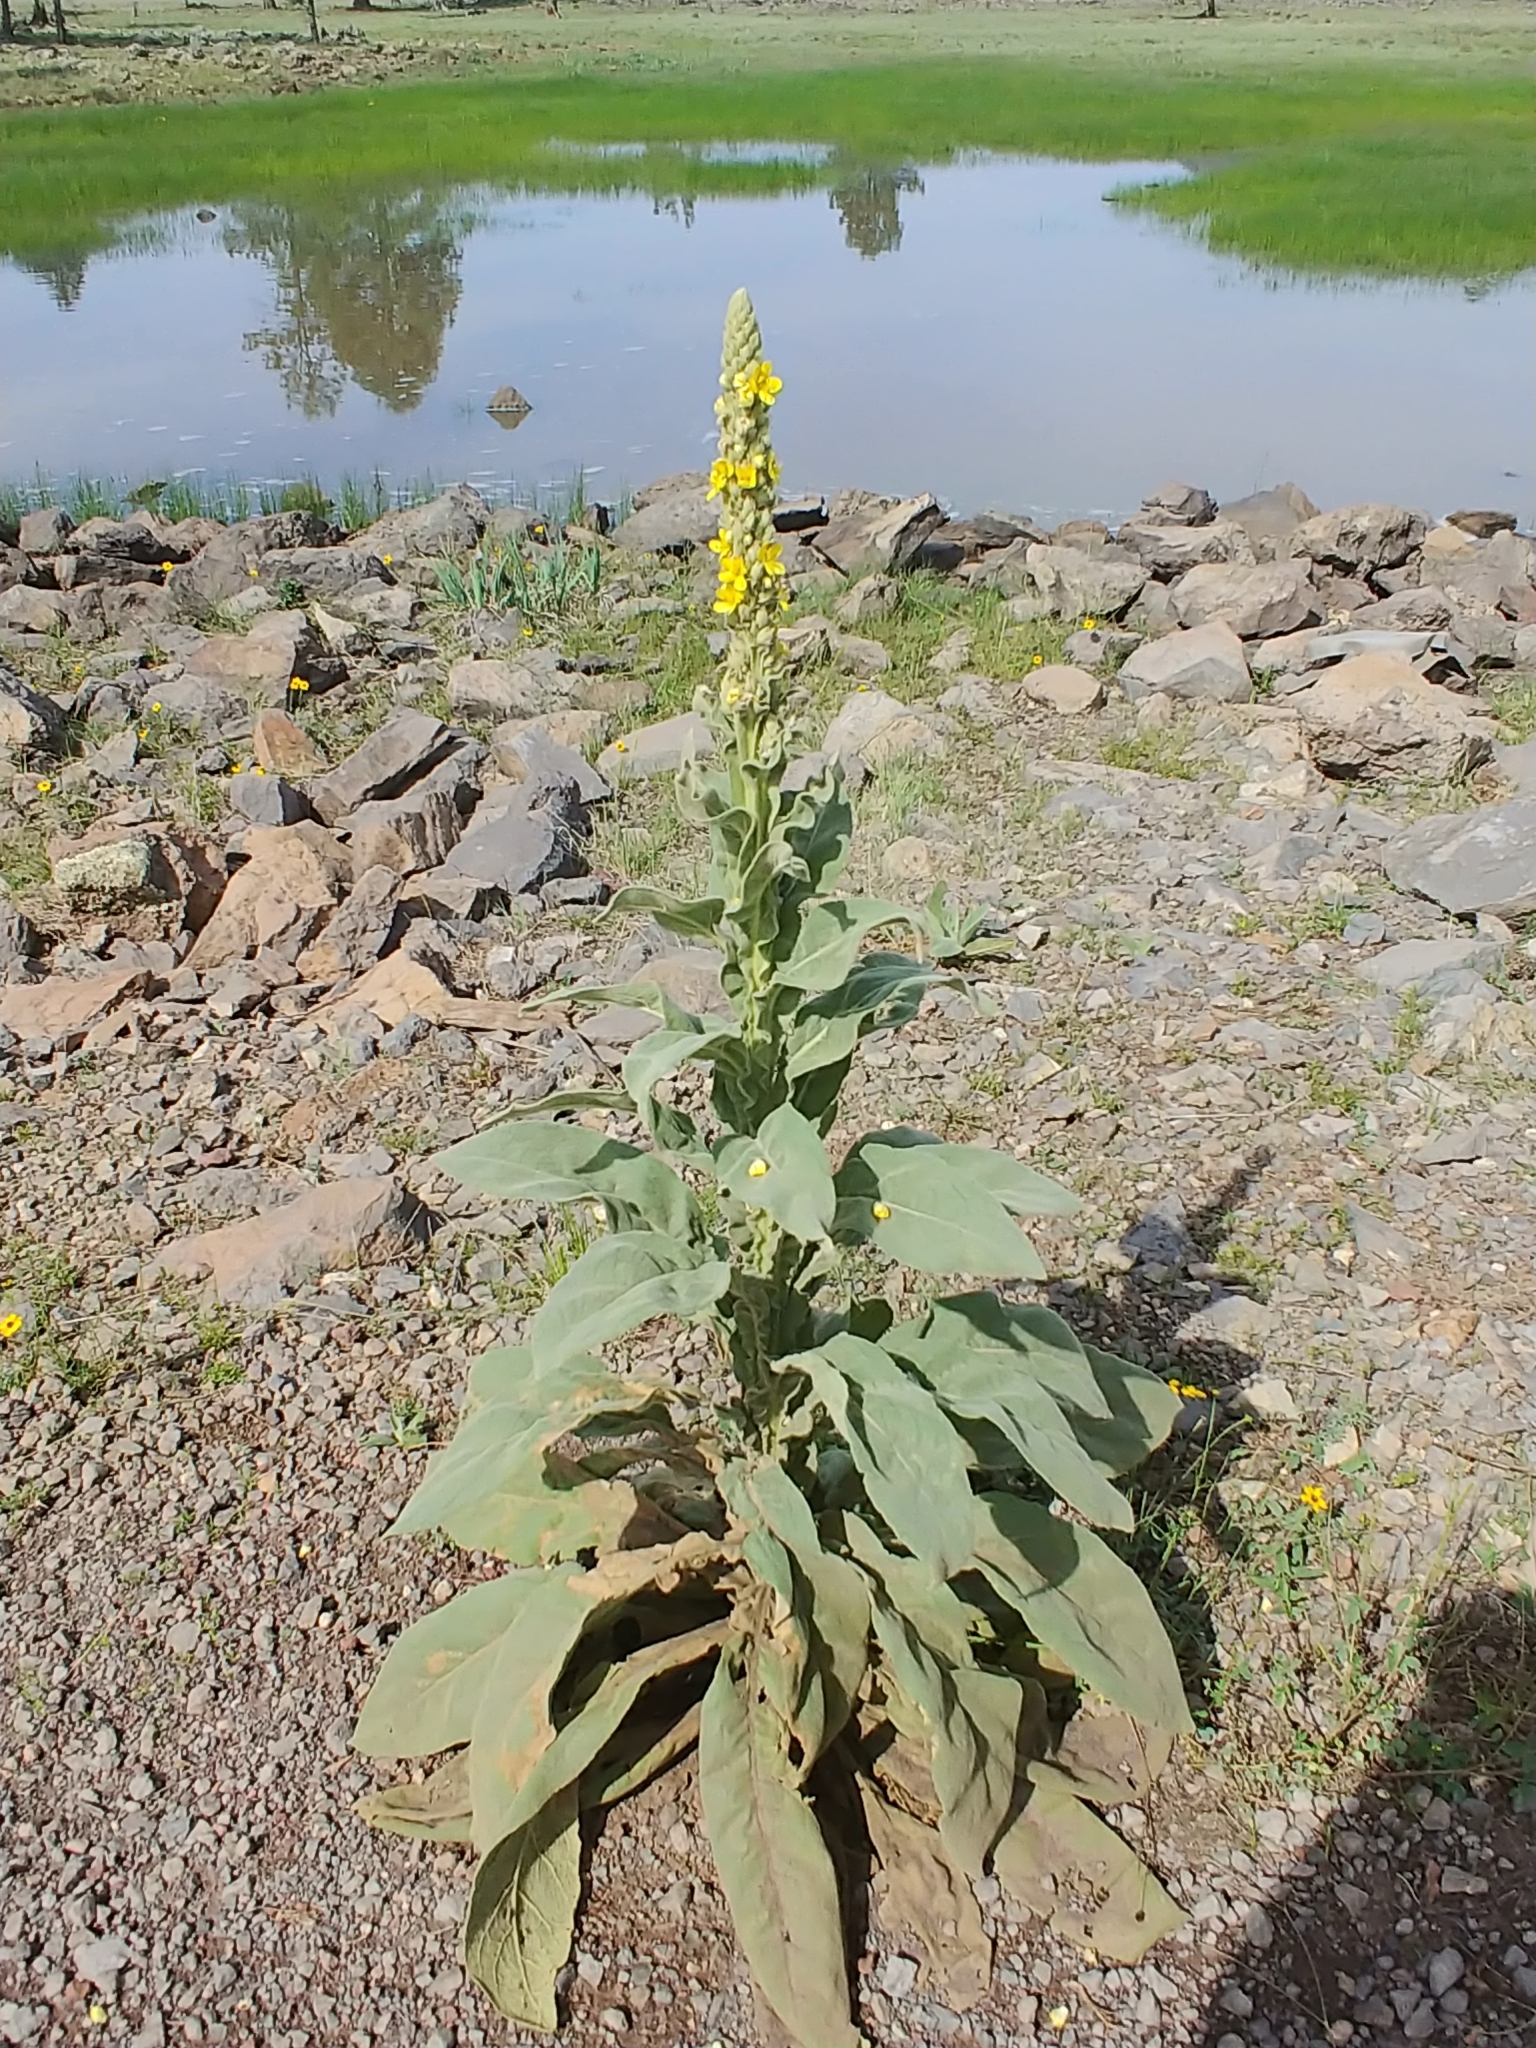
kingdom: Plantae
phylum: Tracheophyta
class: Magnoliopsida
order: Lamiales
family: Scrophulariaceae
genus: Verbascum
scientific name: Verbascum thapsus
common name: Common mullein
